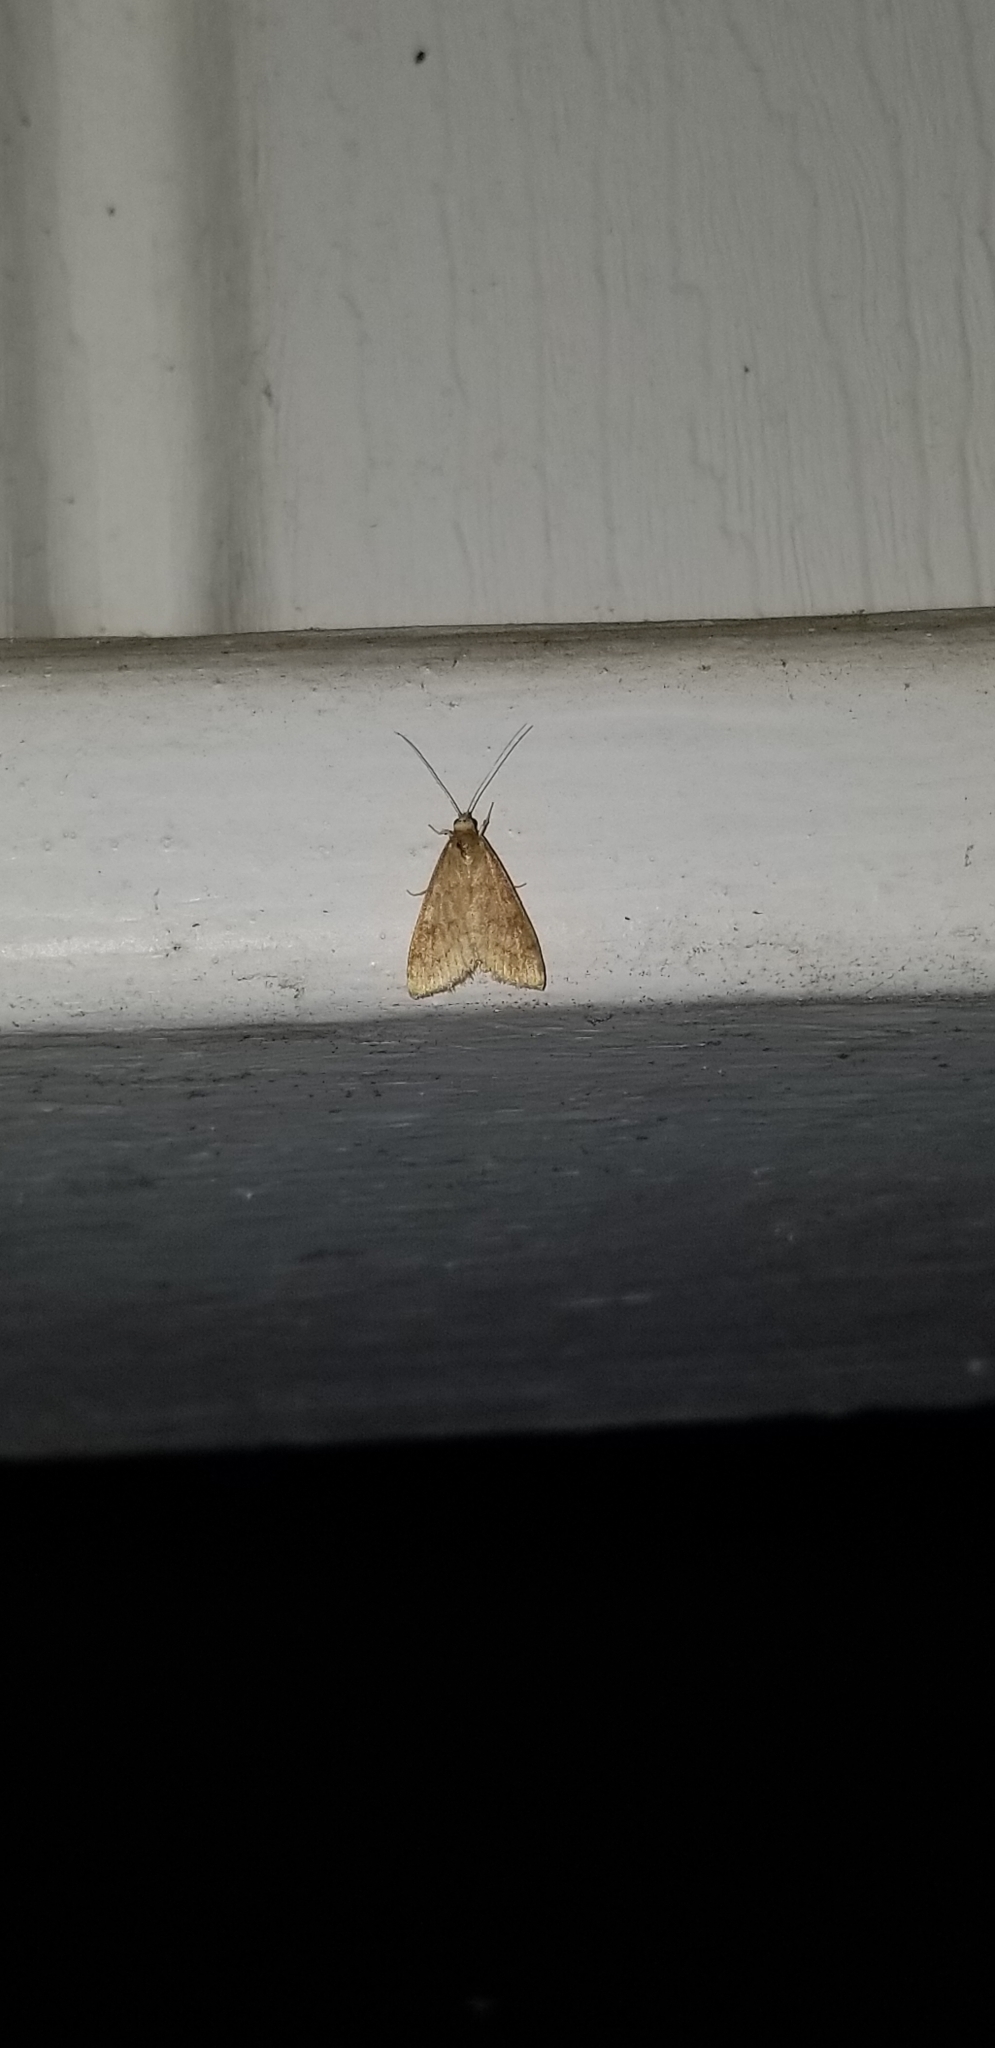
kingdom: Animalia
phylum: Arthropoda
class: Insecta
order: Lepidoptera
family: Crambidae
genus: Udea
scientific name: Udea rubigalis
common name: Celery leaftier moth
